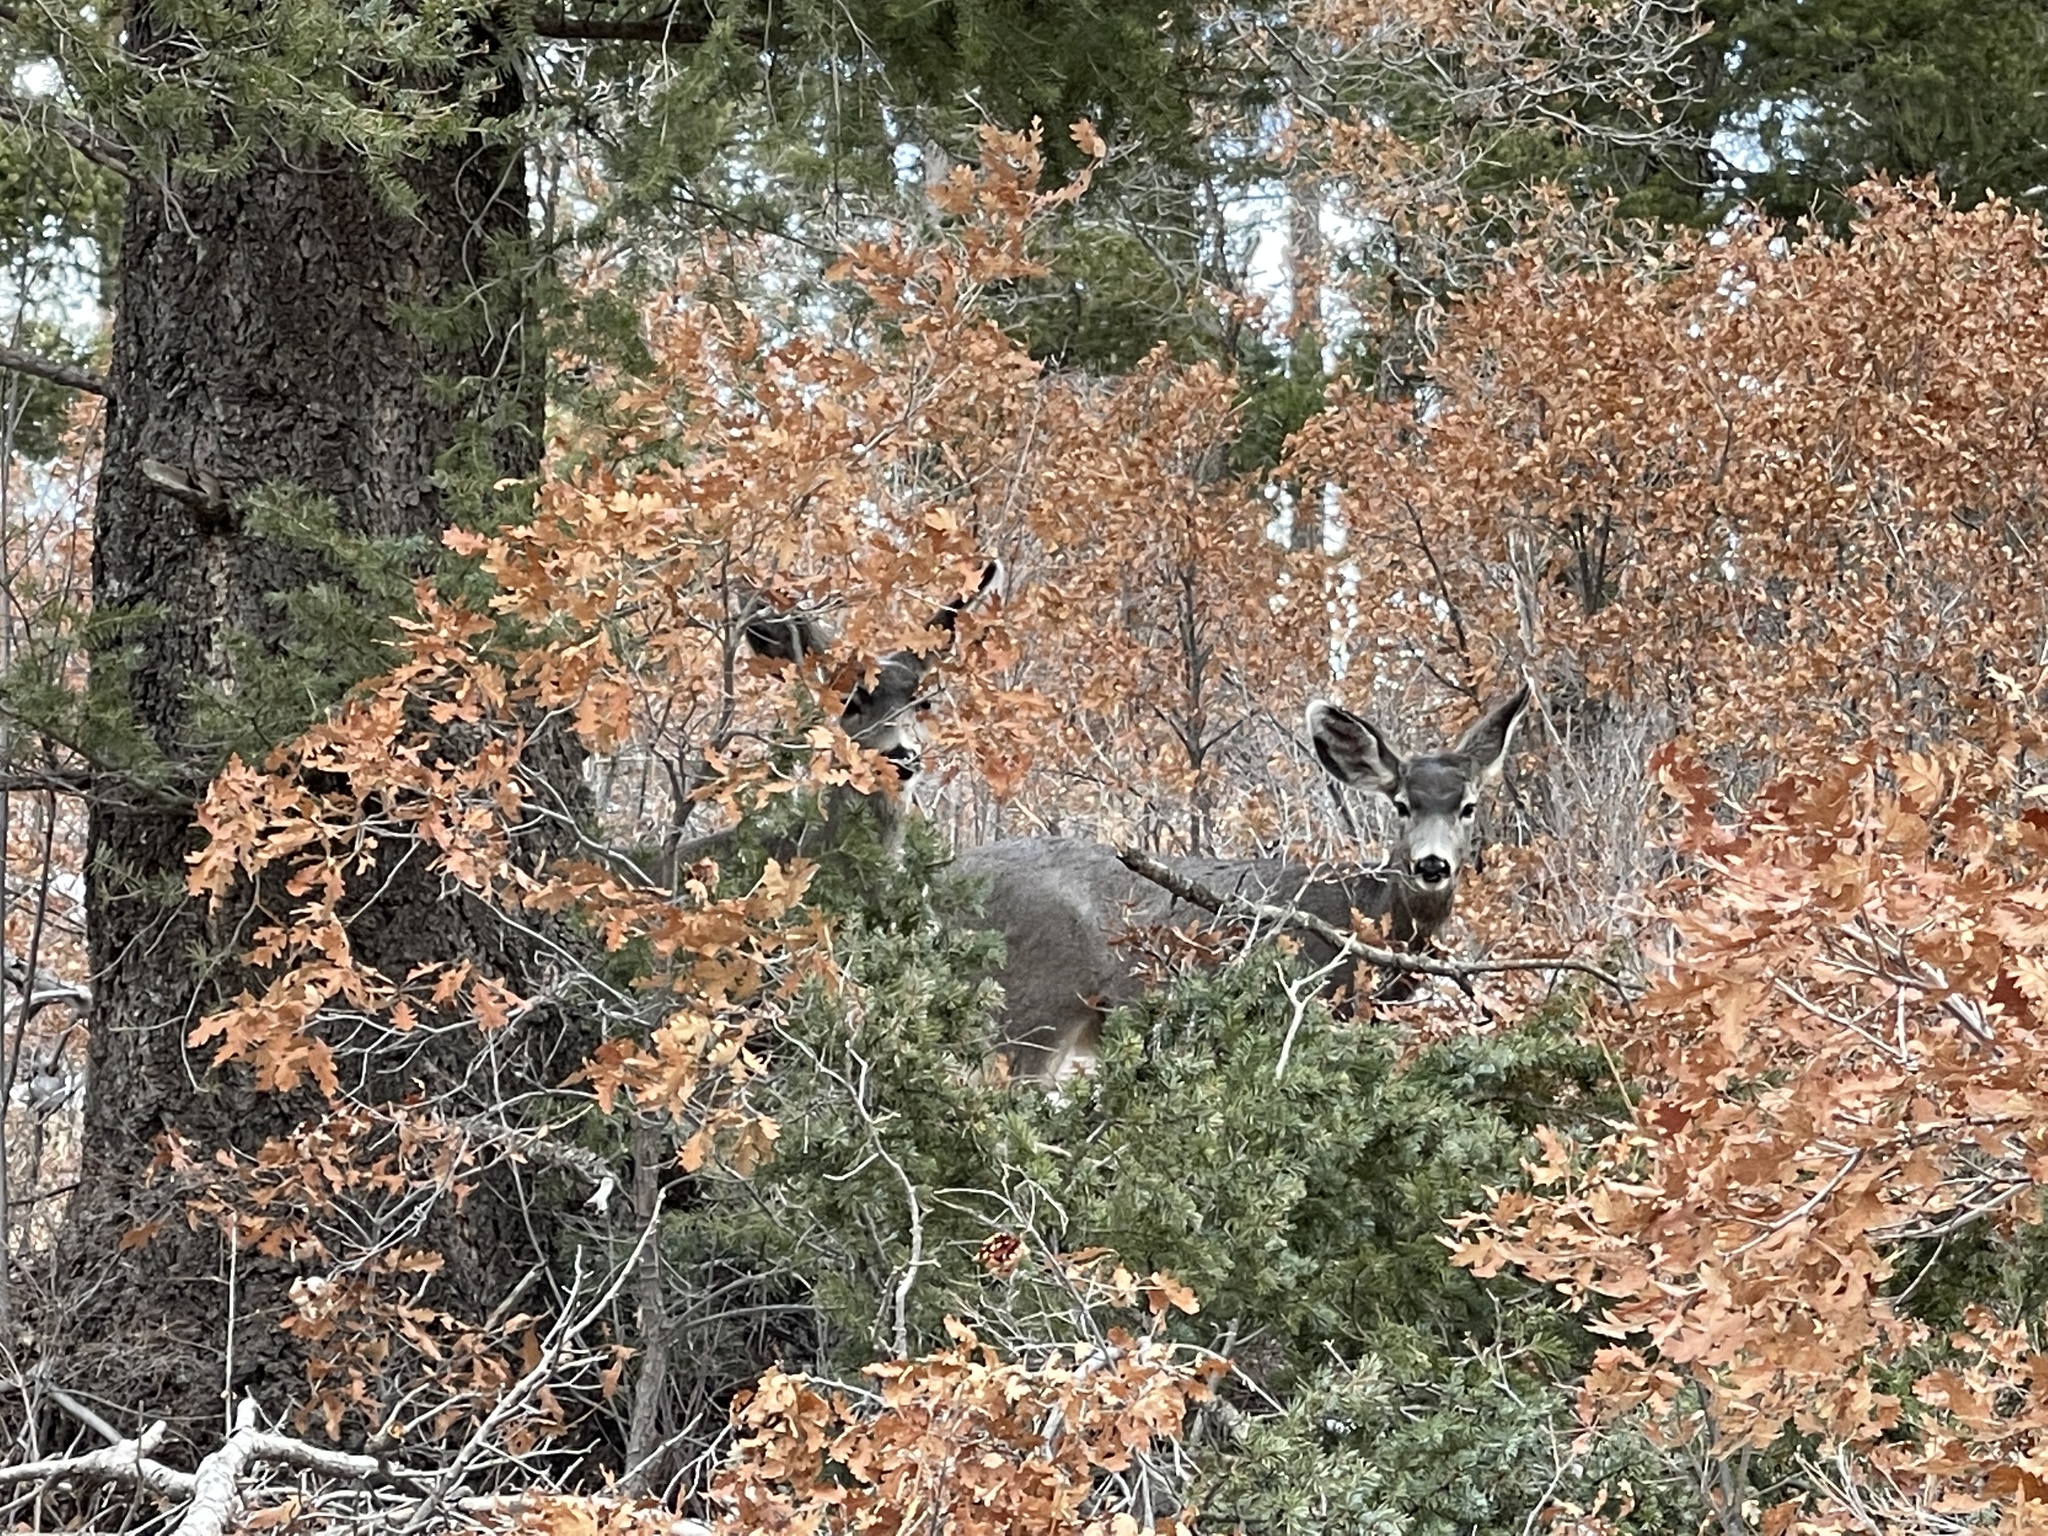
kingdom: Animalia
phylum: Chordata
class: Mammalia
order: Artiodactyla
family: Cervidae
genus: Odocoileus
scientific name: Odocoileus hemionus
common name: Mule deer
